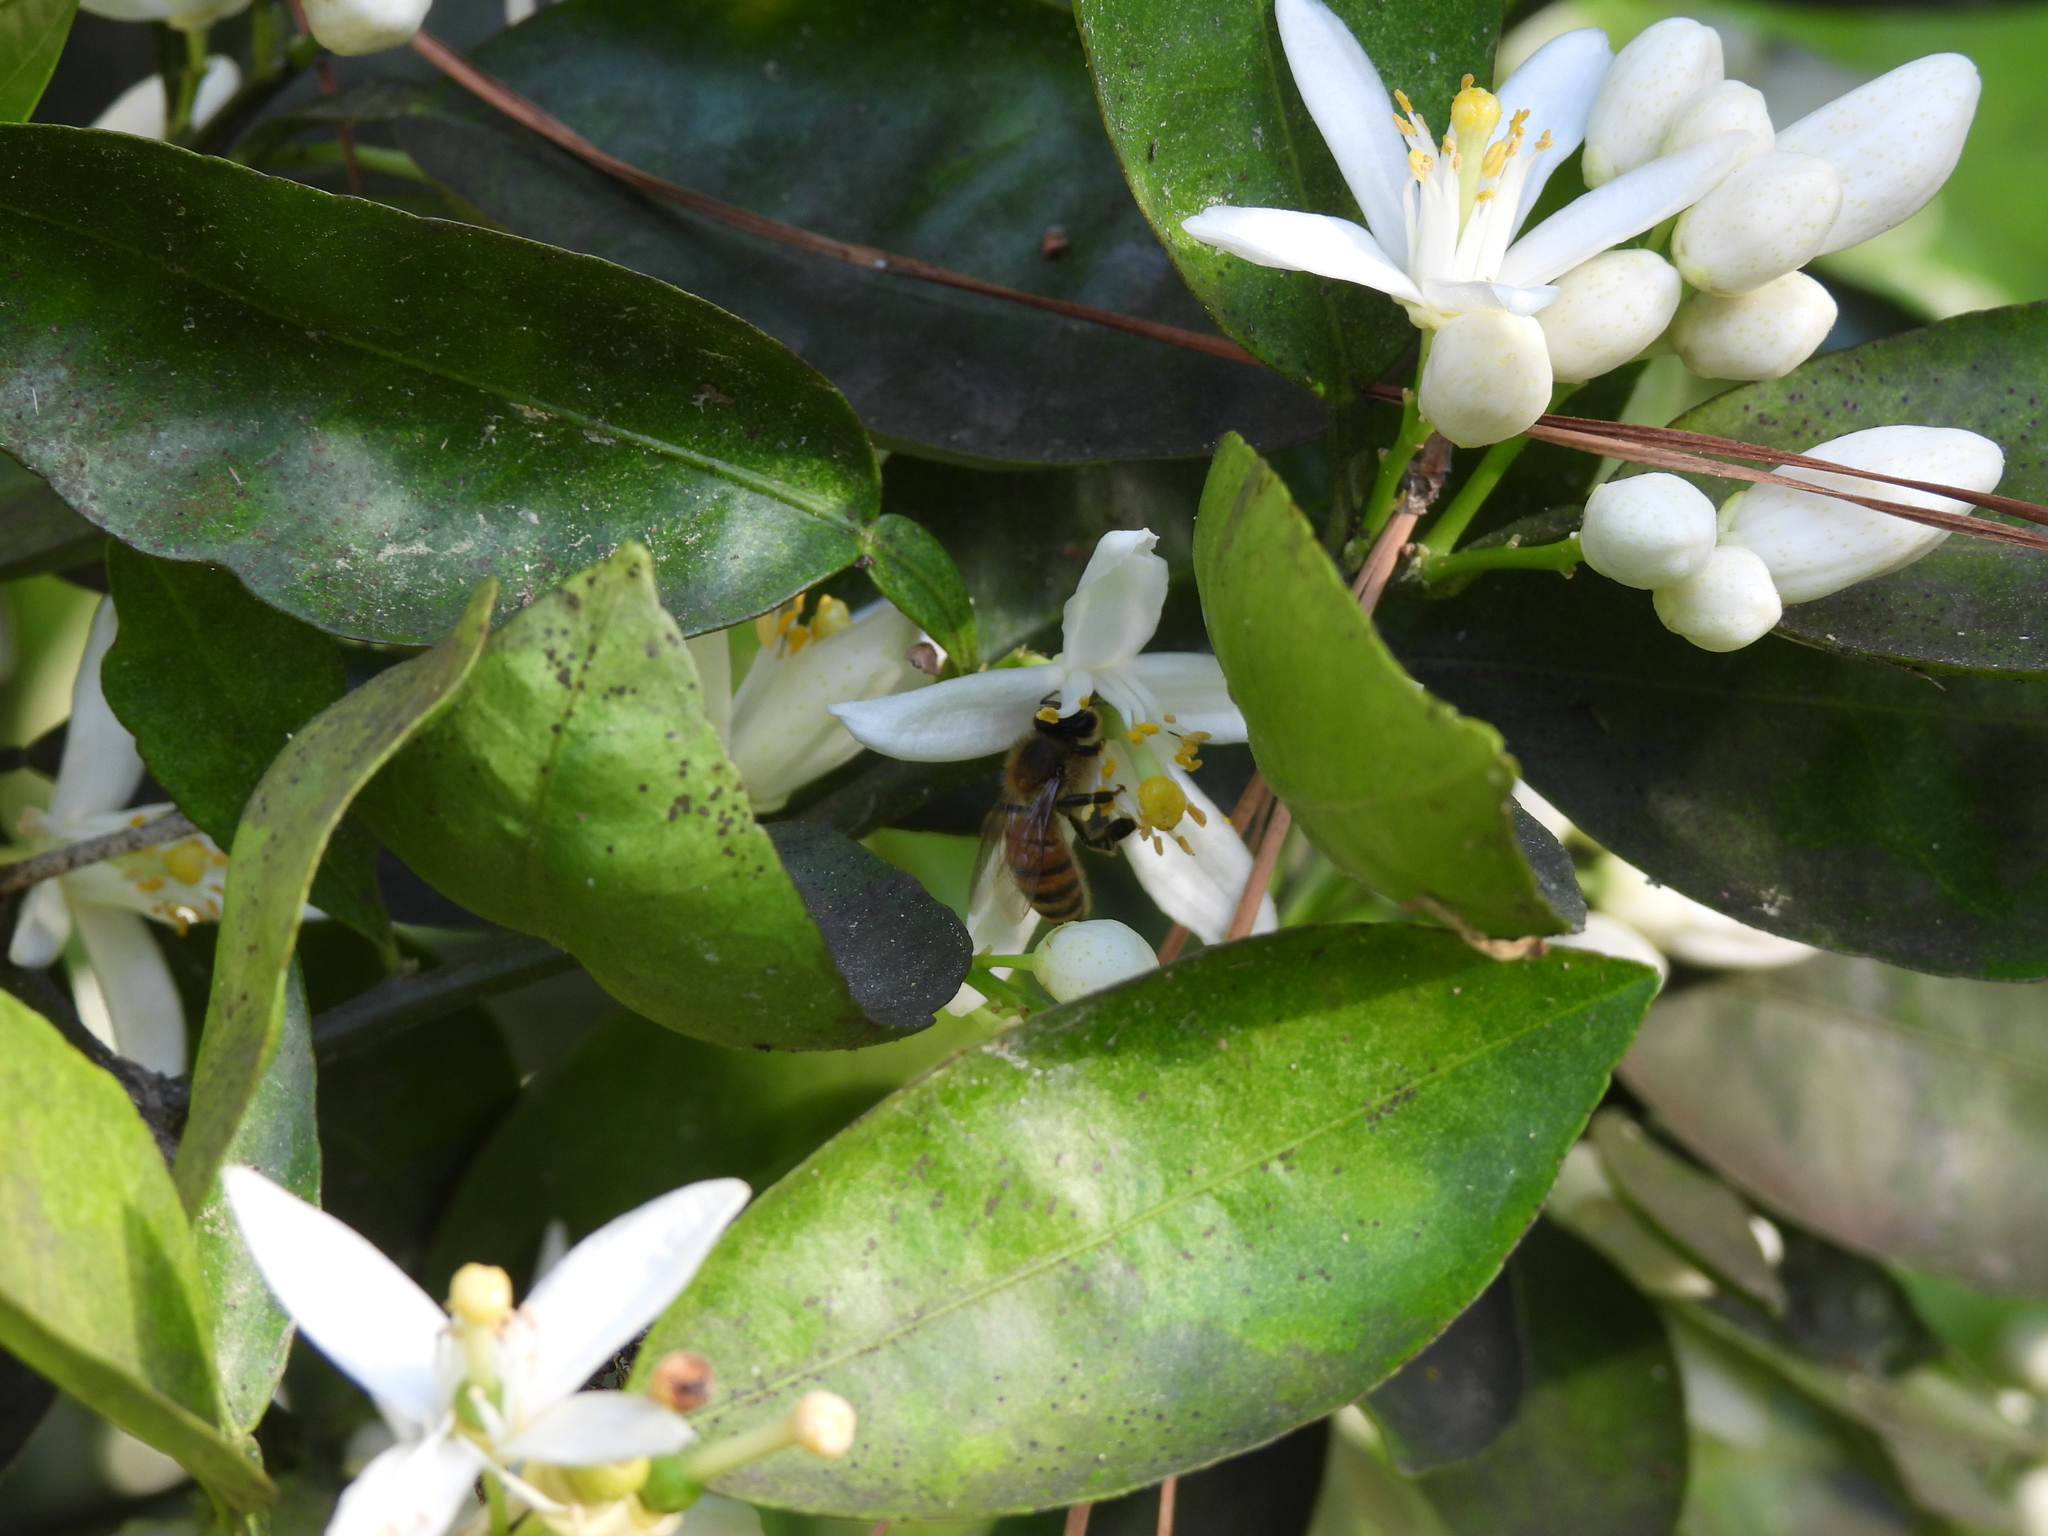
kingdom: Animalia
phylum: Arthropoda
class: Insecta
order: Hymenoptera
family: Apidae
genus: Apis
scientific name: Apis mellifera
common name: Honey bee
